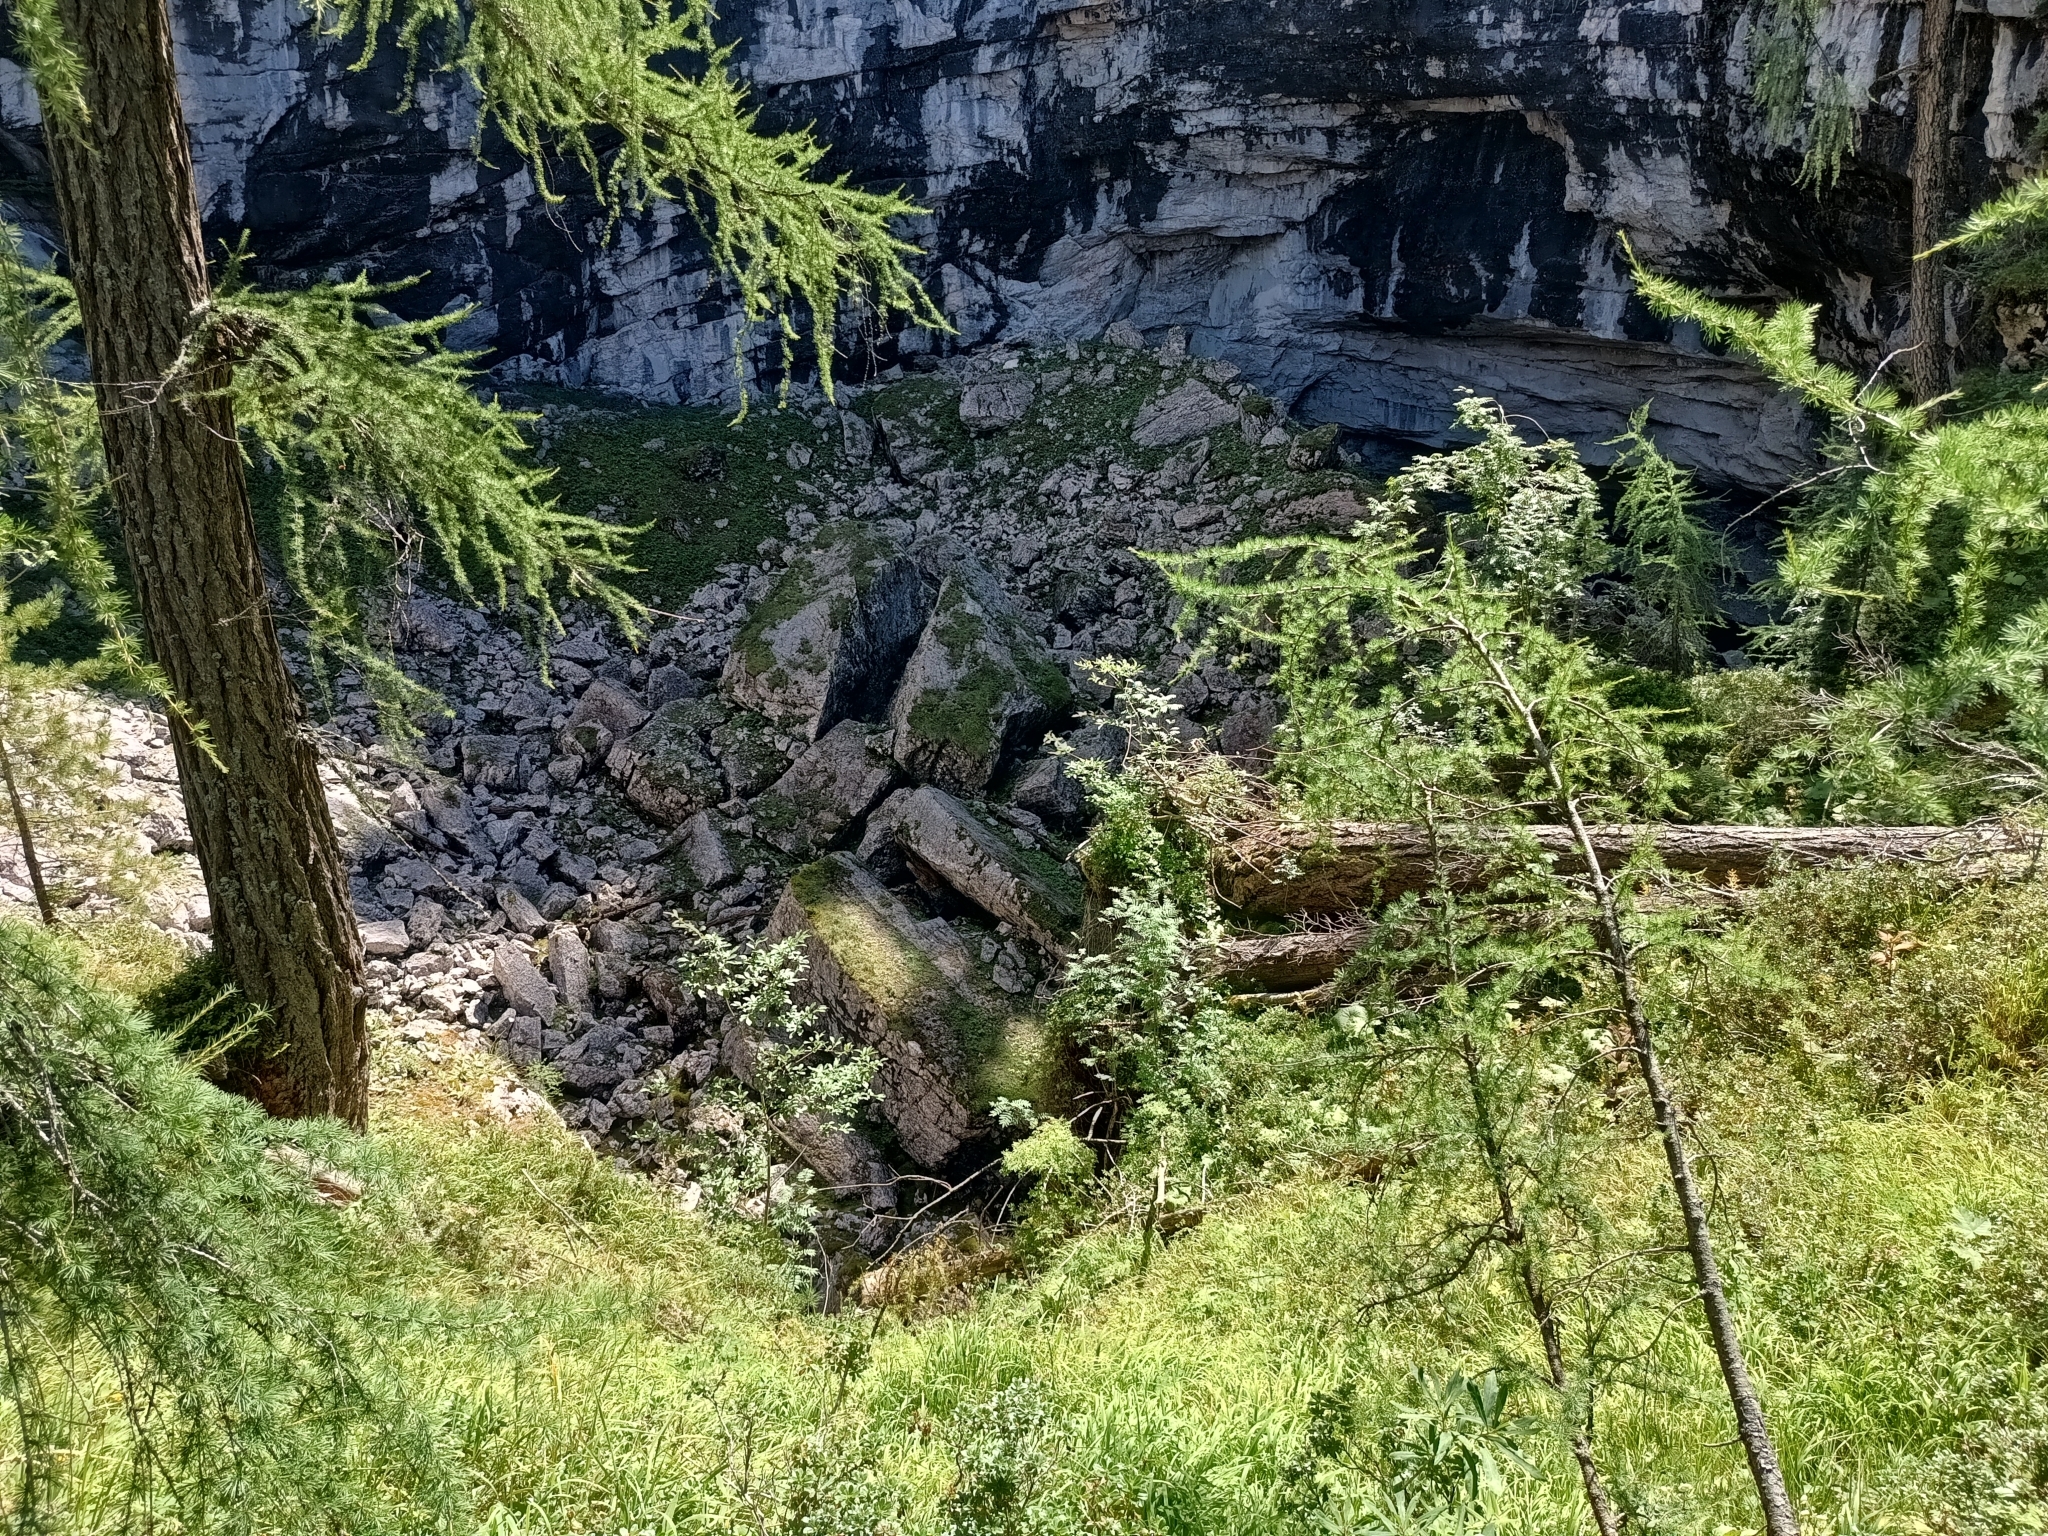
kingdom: Plantae
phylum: Tracheophyta
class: Pinopsida
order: Pinales
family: Pinaceae
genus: Larix
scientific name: Larix decidua
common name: European larch
